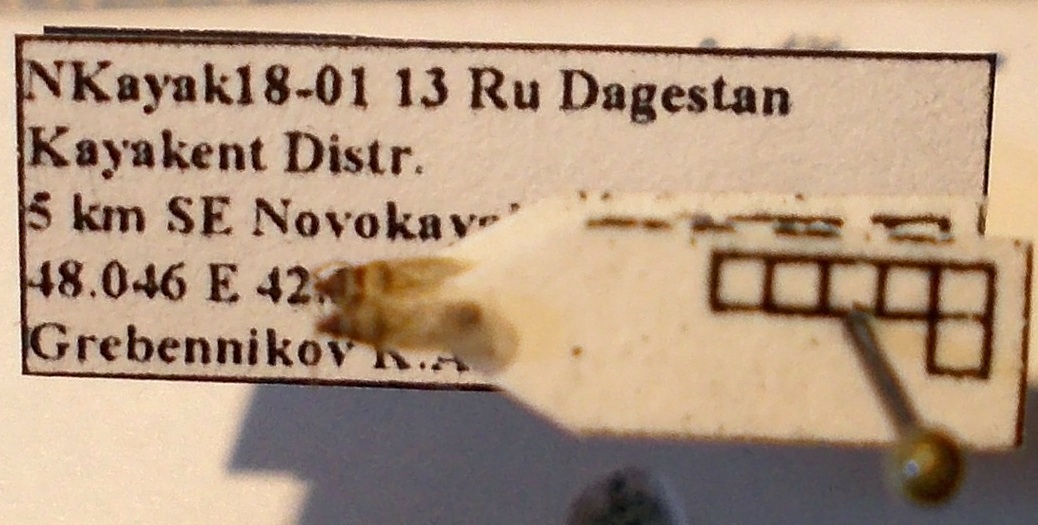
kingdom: Animalia
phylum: Arthropoda
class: Insecta
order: Hemiptera
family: Oxycarenidae
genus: Oxycarenus
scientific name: Oxycarenus pallens
